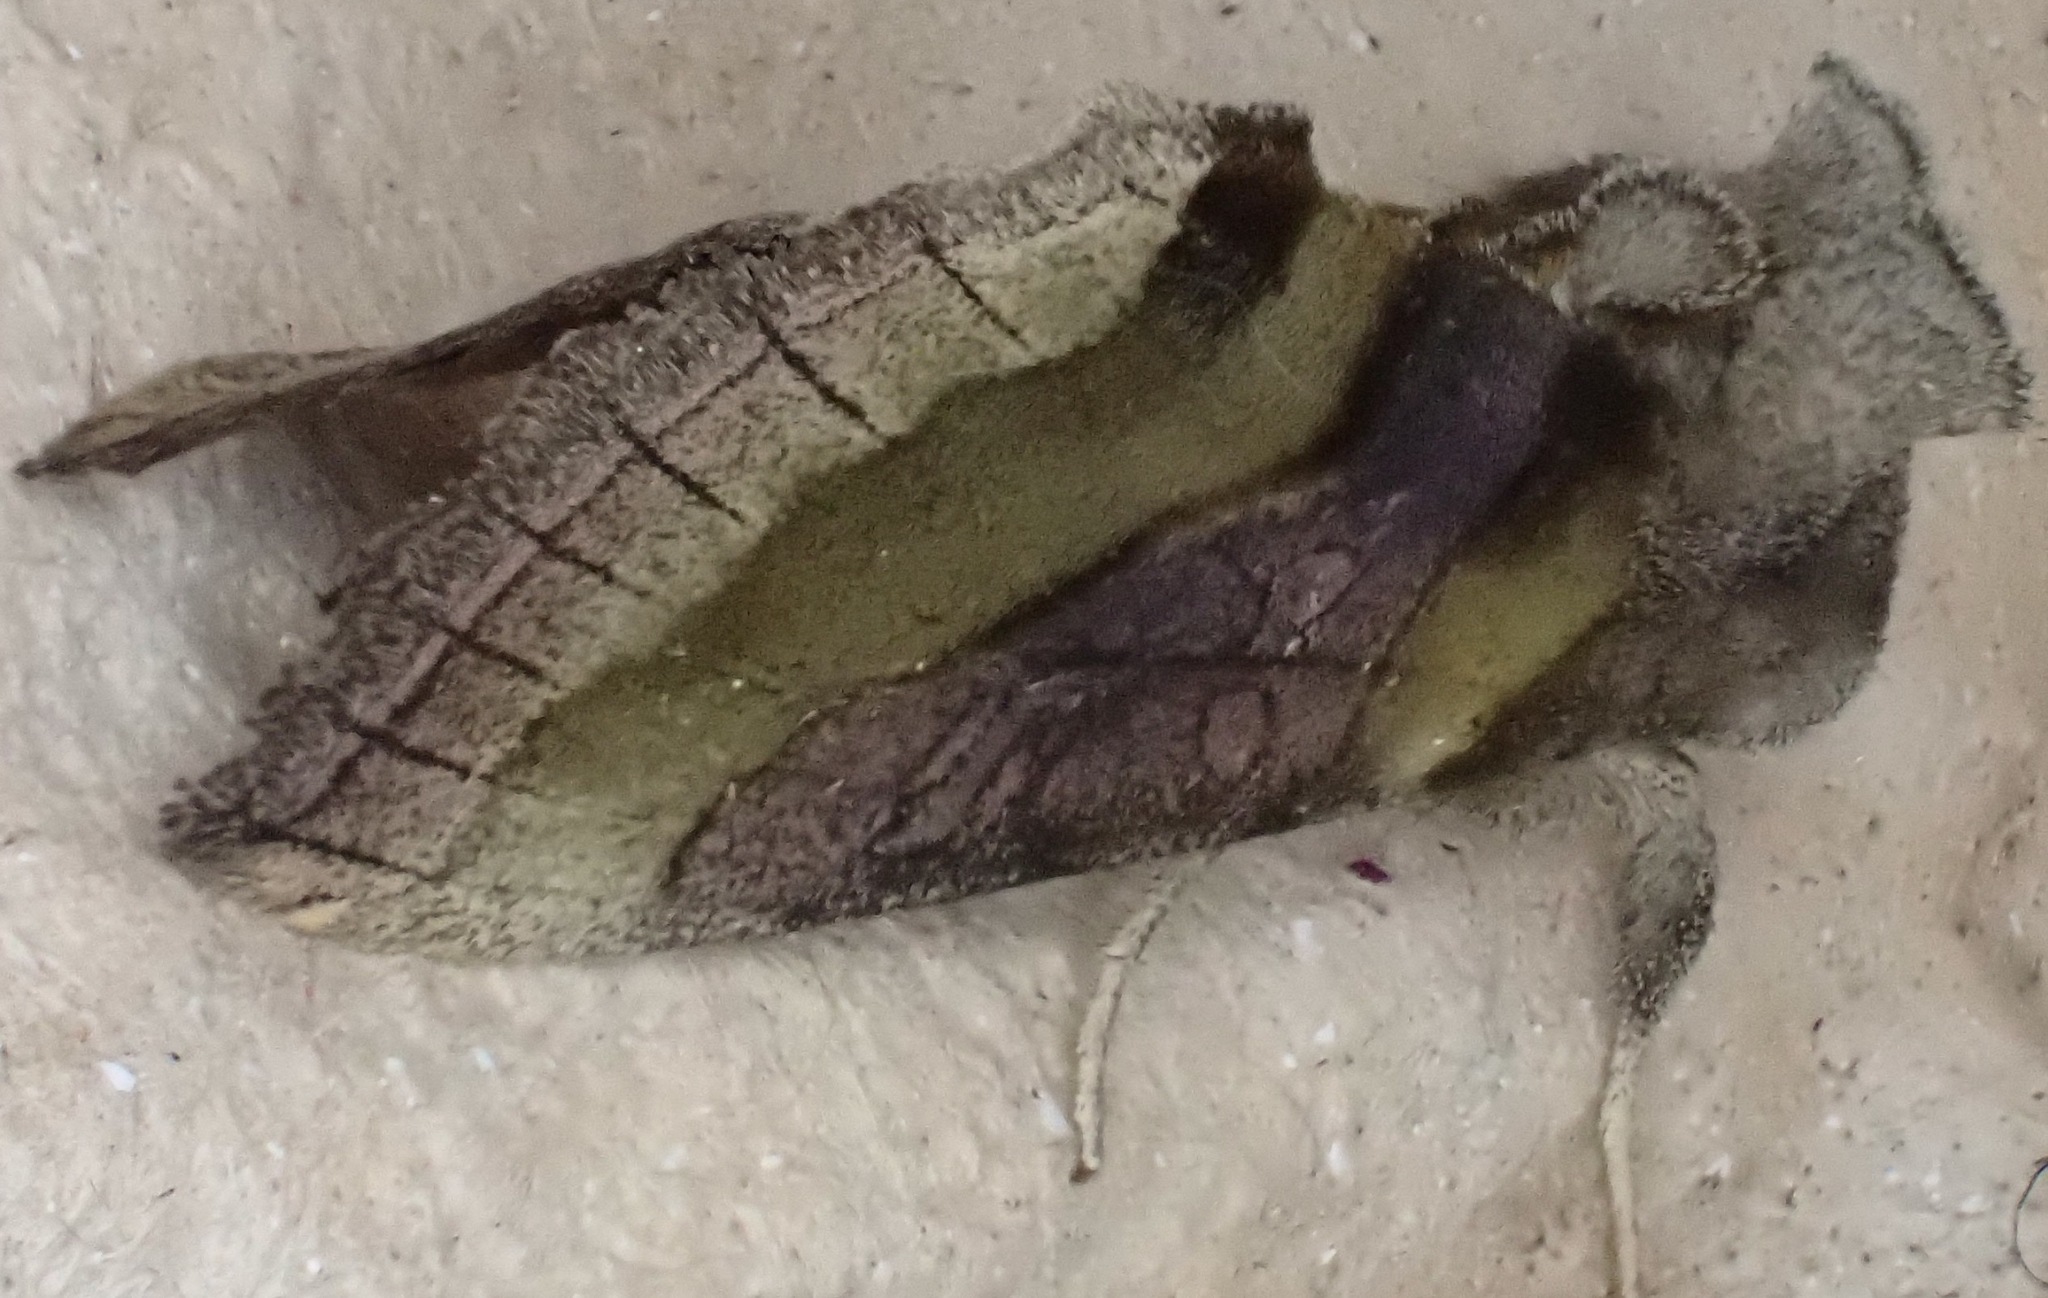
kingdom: Animalia
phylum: Arthropoda
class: Insecta
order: Lepidoptera
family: Noctuidae
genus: Diachrysia
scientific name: Diachrysia chrysitis
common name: Burnished brass
